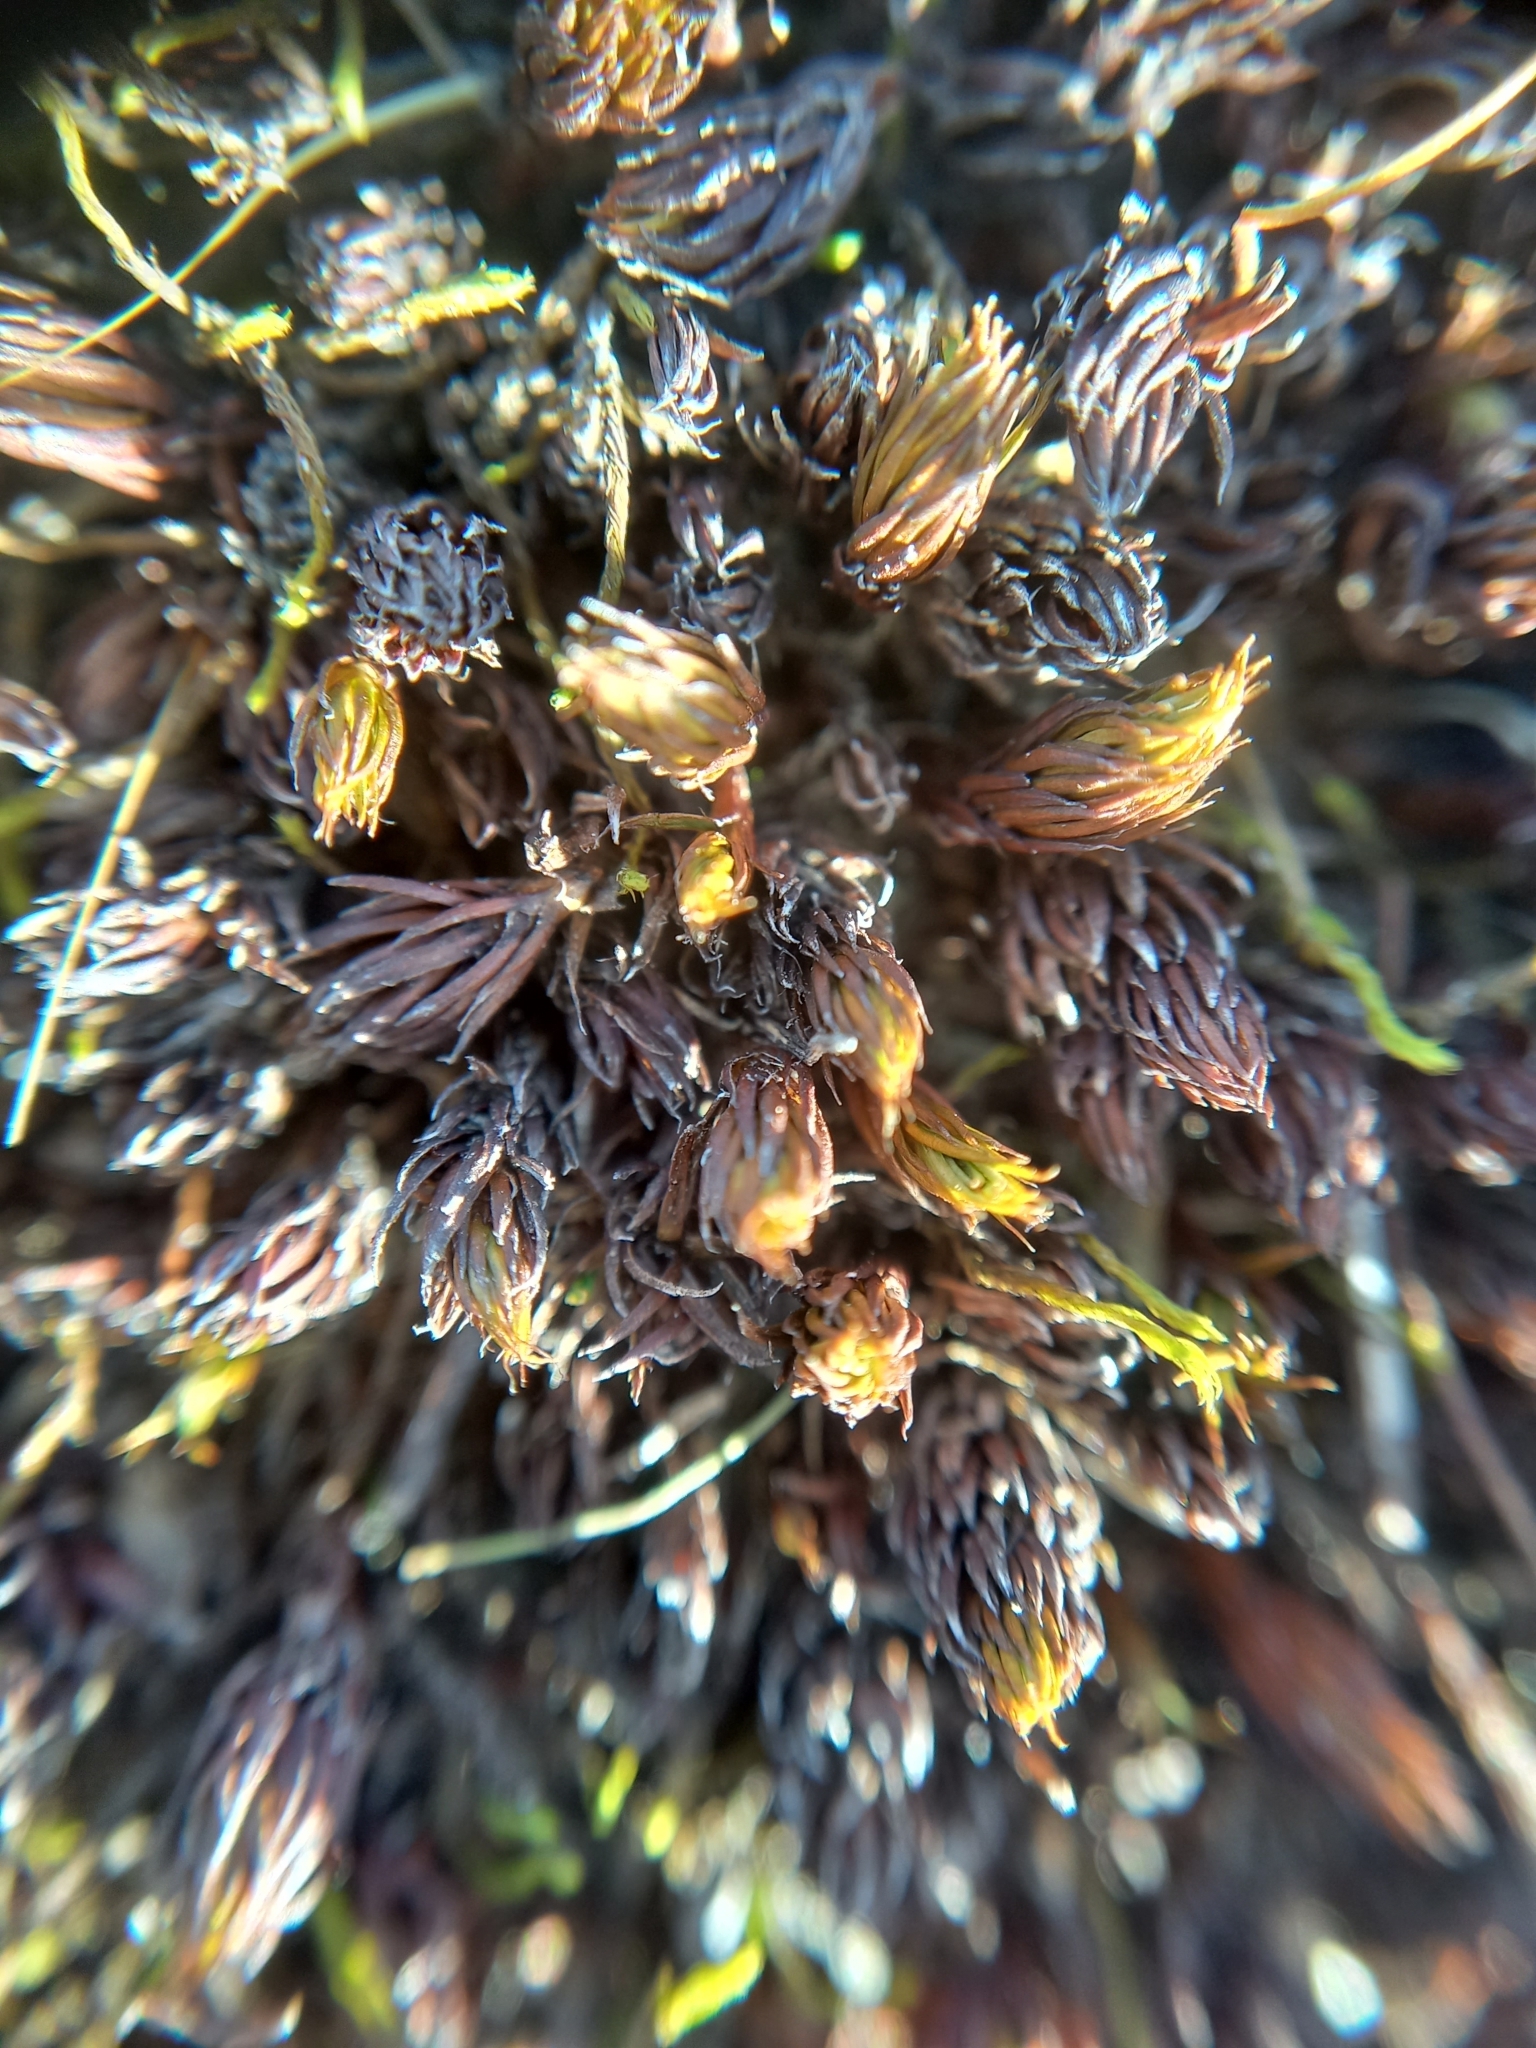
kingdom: Plantae
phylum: Bryophyta
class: Polytrichopsida
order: Polytrichales
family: Polytrichaceae
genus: Polytrichum
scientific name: Polytrichum juniperinum
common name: Juniper haircap moss
